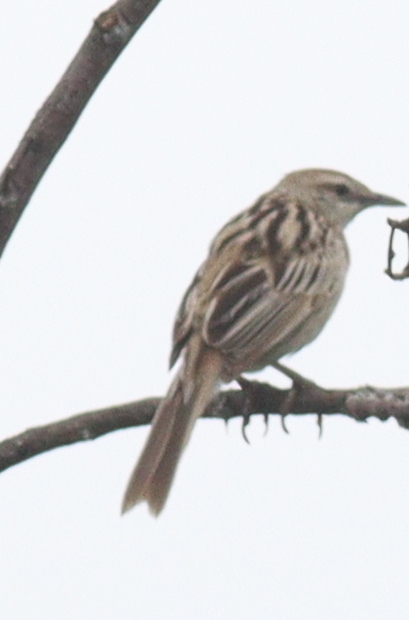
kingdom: Animalia
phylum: Chordata
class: Aves
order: Passeriformes
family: Locustellidae
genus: Megalurus
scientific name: Megalurus palustris
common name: Striated grassbird
